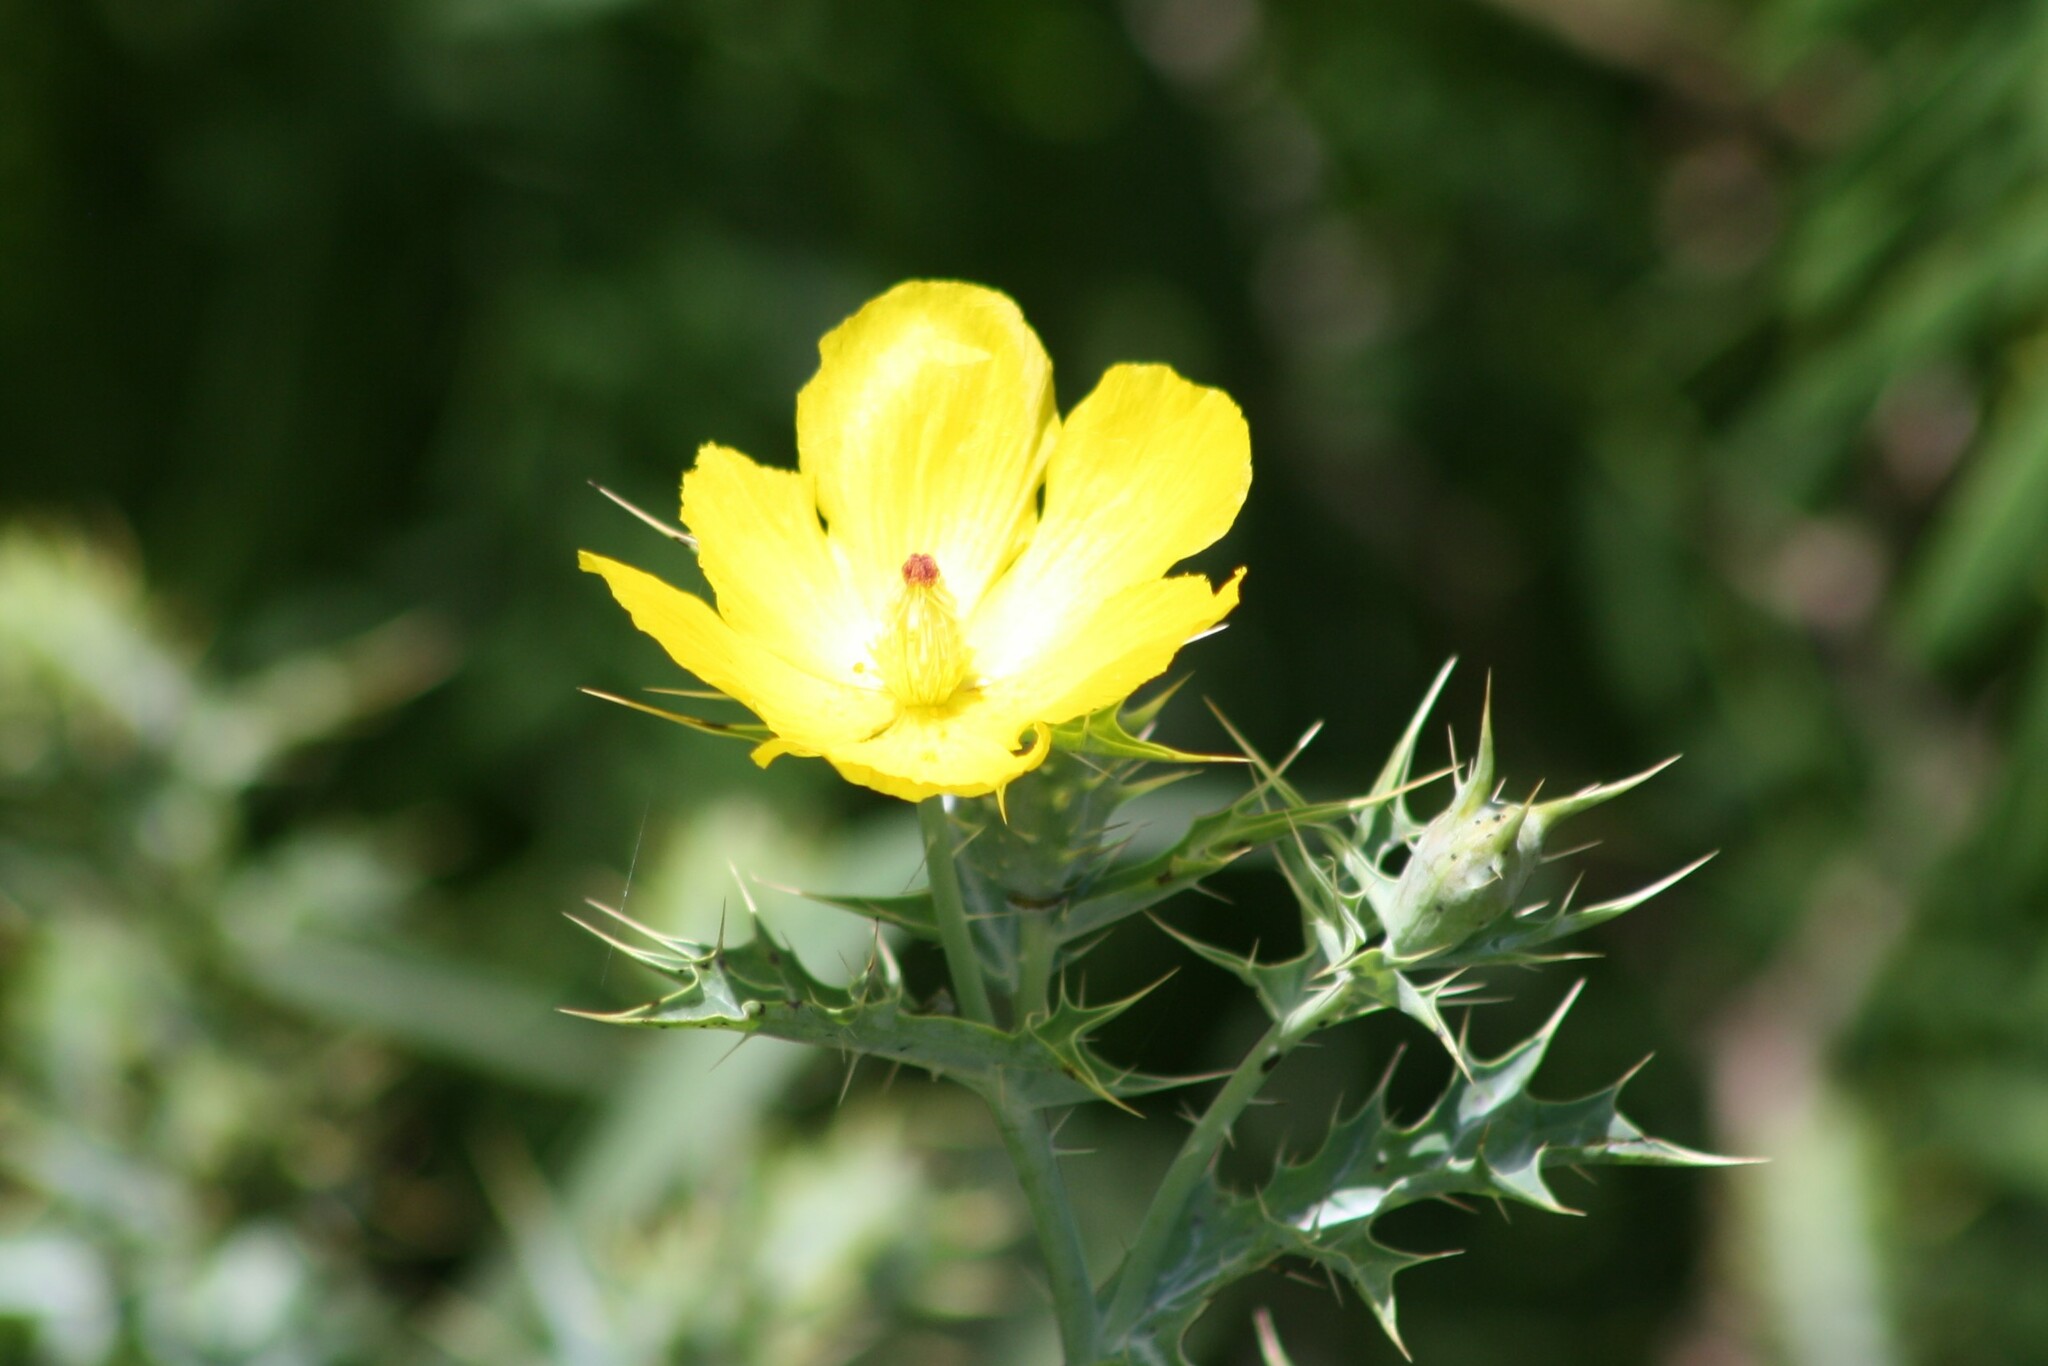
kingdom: Plantae
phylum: Tracheophyta
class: Magnoliopsida
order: Ranunculales
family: Papaveraceae
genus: Argemone
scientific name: Argemone mexicana
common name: Mexican poppy
